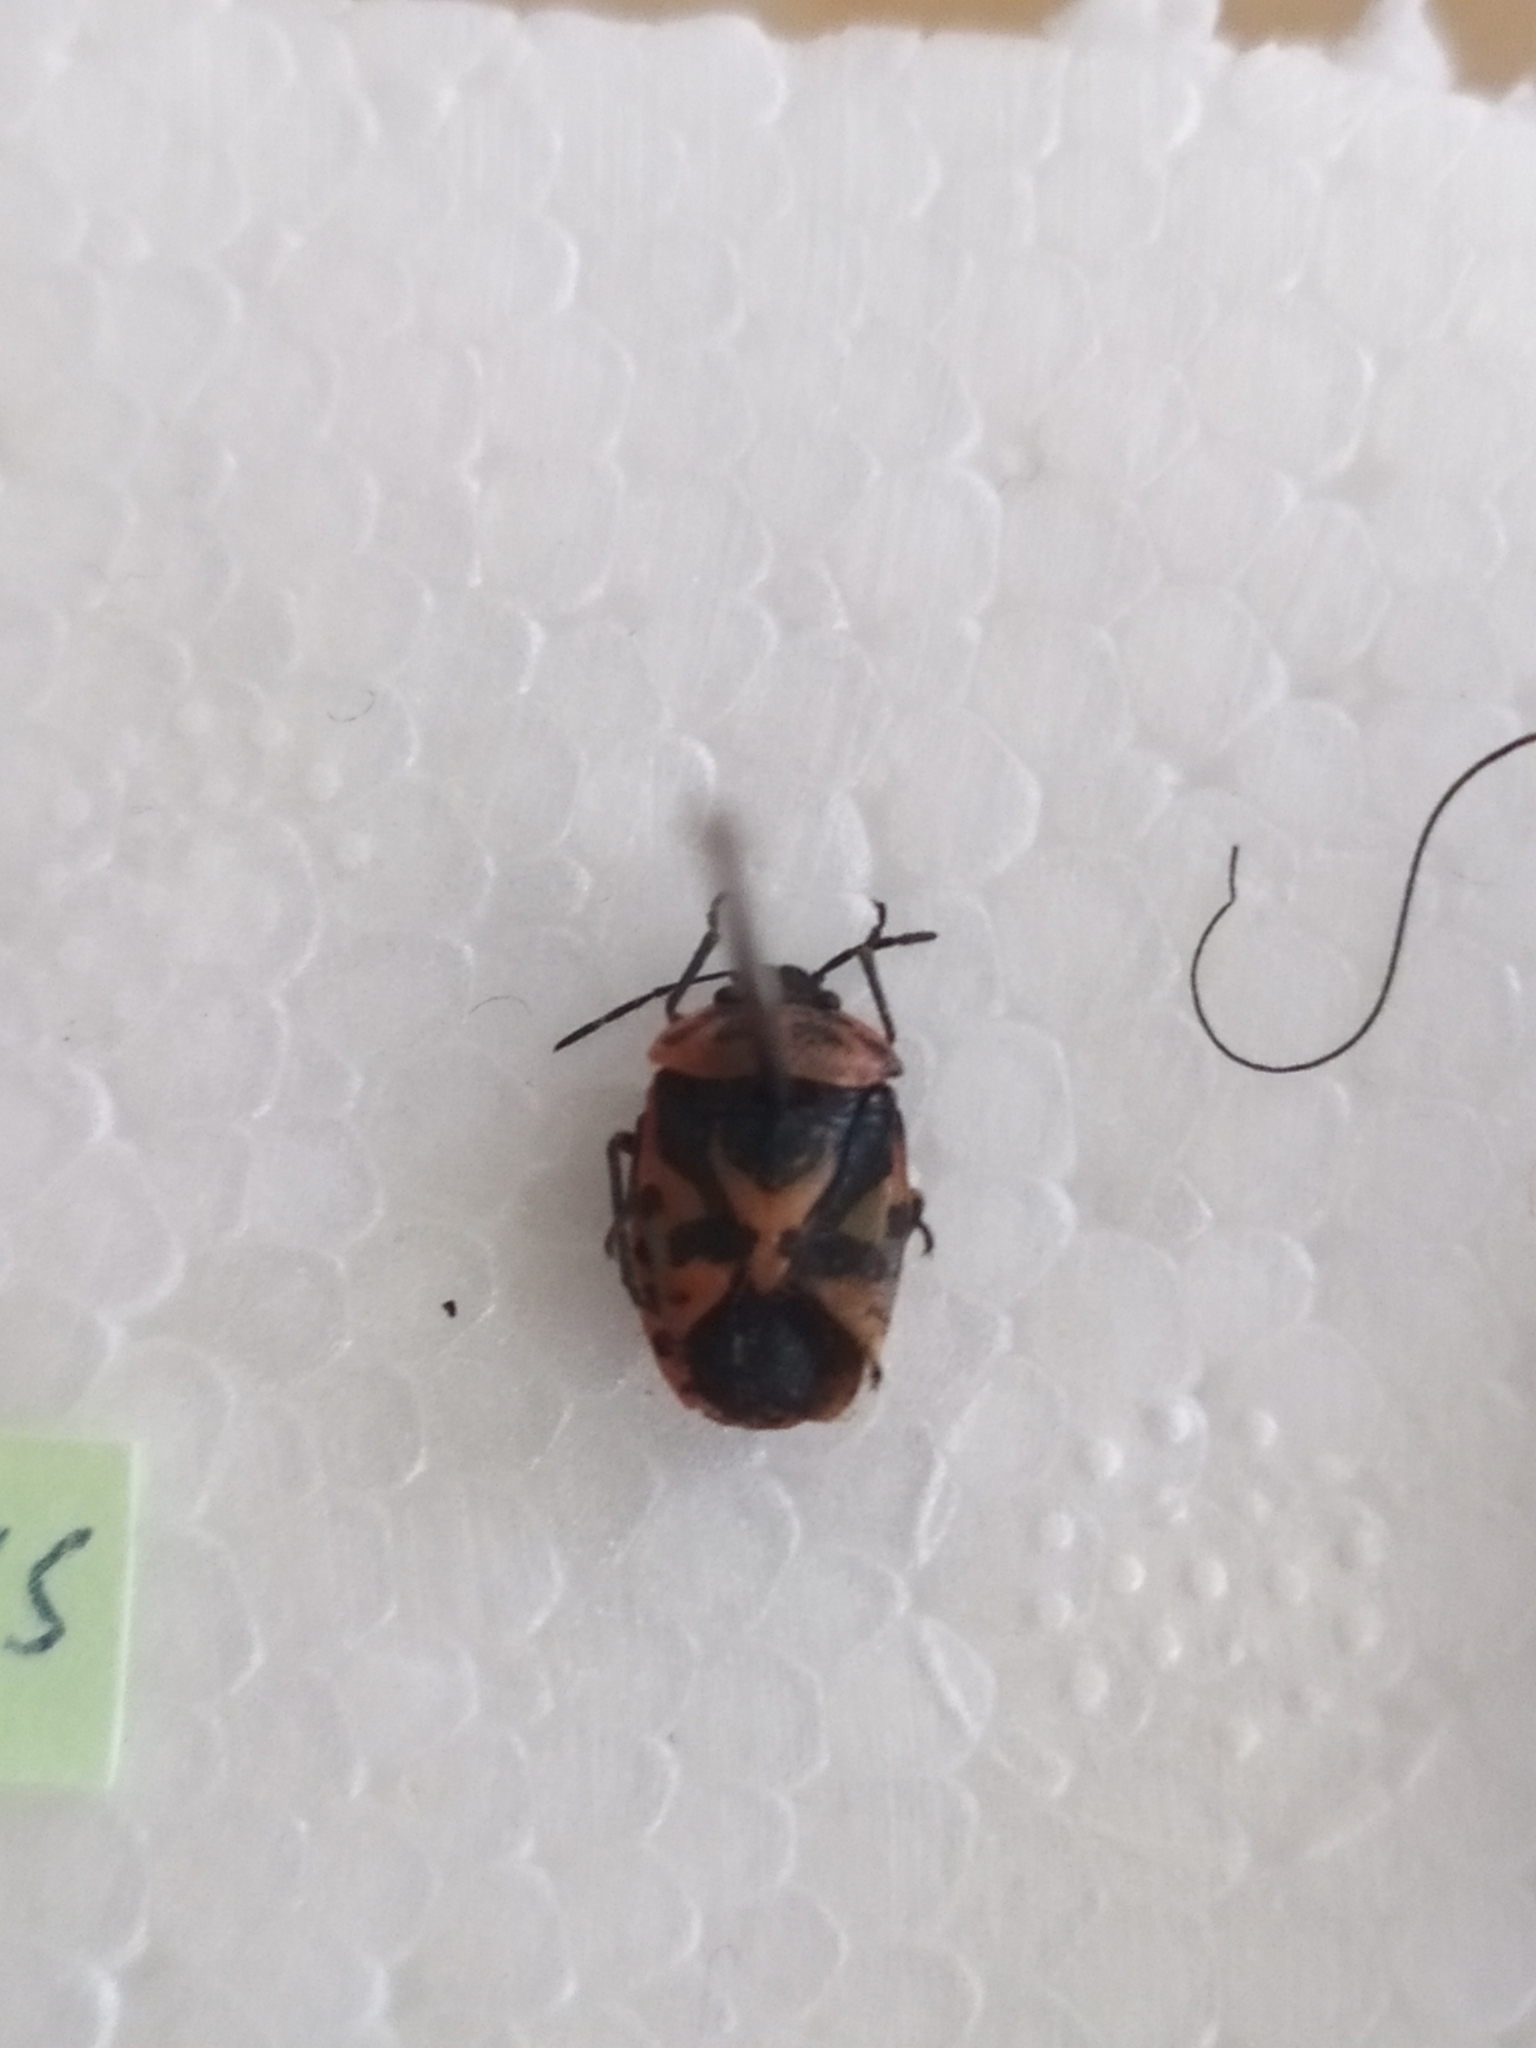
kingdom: Animalia
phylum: Arthropoda
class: Insecta
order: Hemiptera
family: Pentatomidae
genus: Eurydema
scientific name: Eurydema ornata
